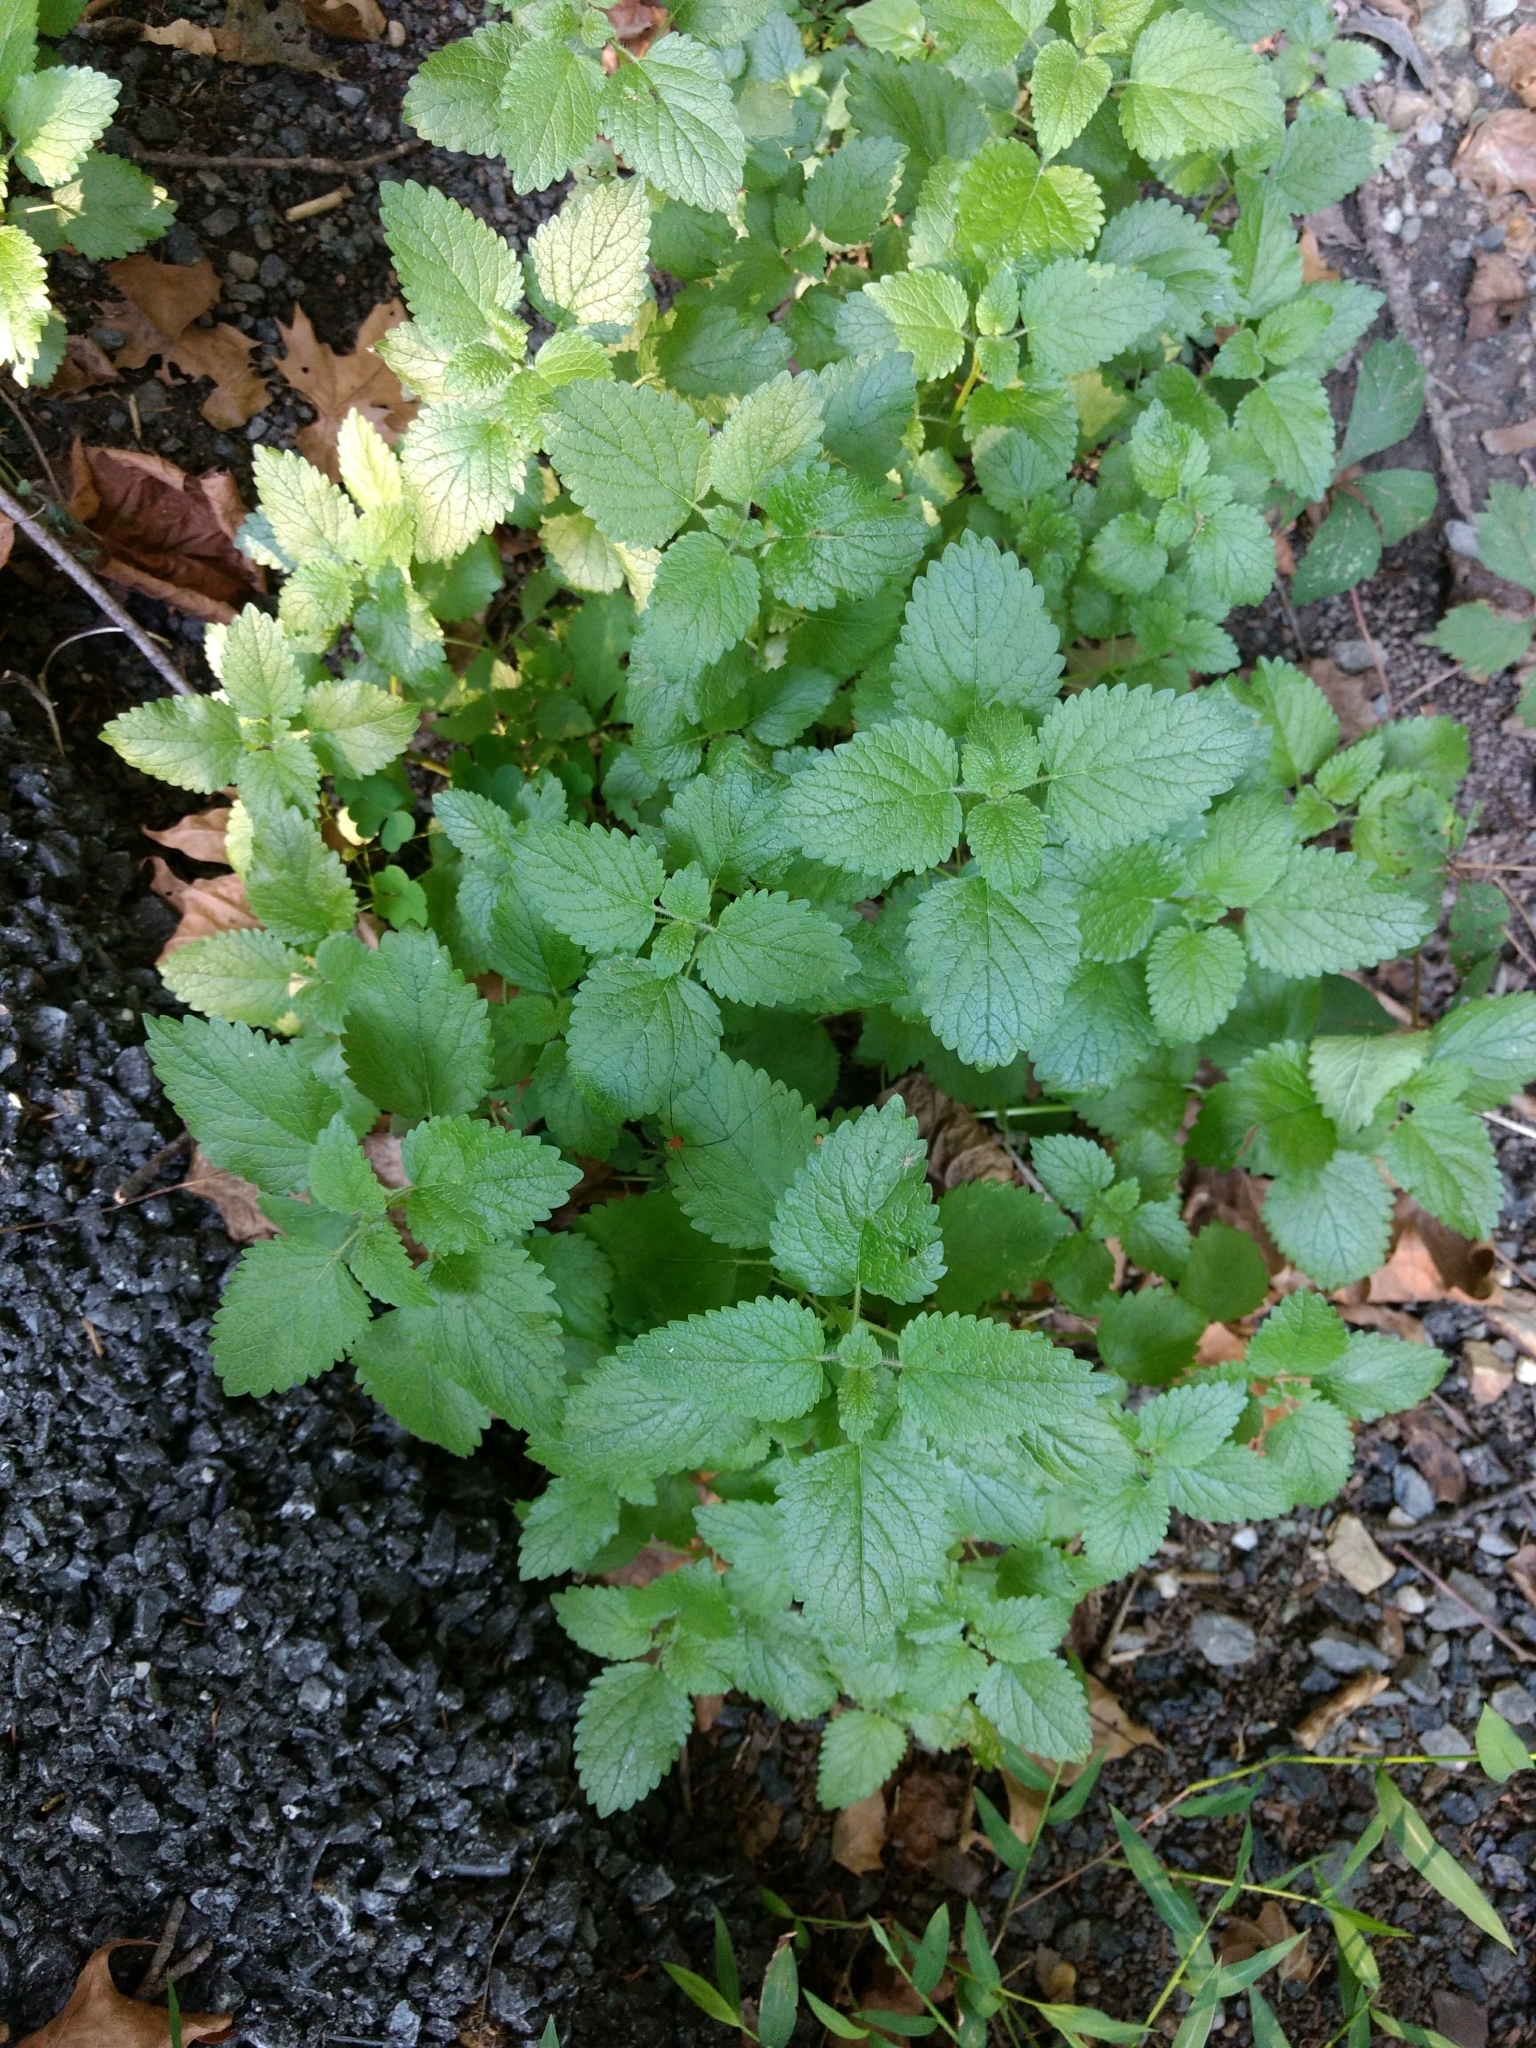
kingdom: Plantae
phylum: Tracheophyta
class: Magnoliopsida
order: Lamiales
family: Lamiaceae
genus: Melissa
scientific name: Melissa officinalis
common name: Balm
